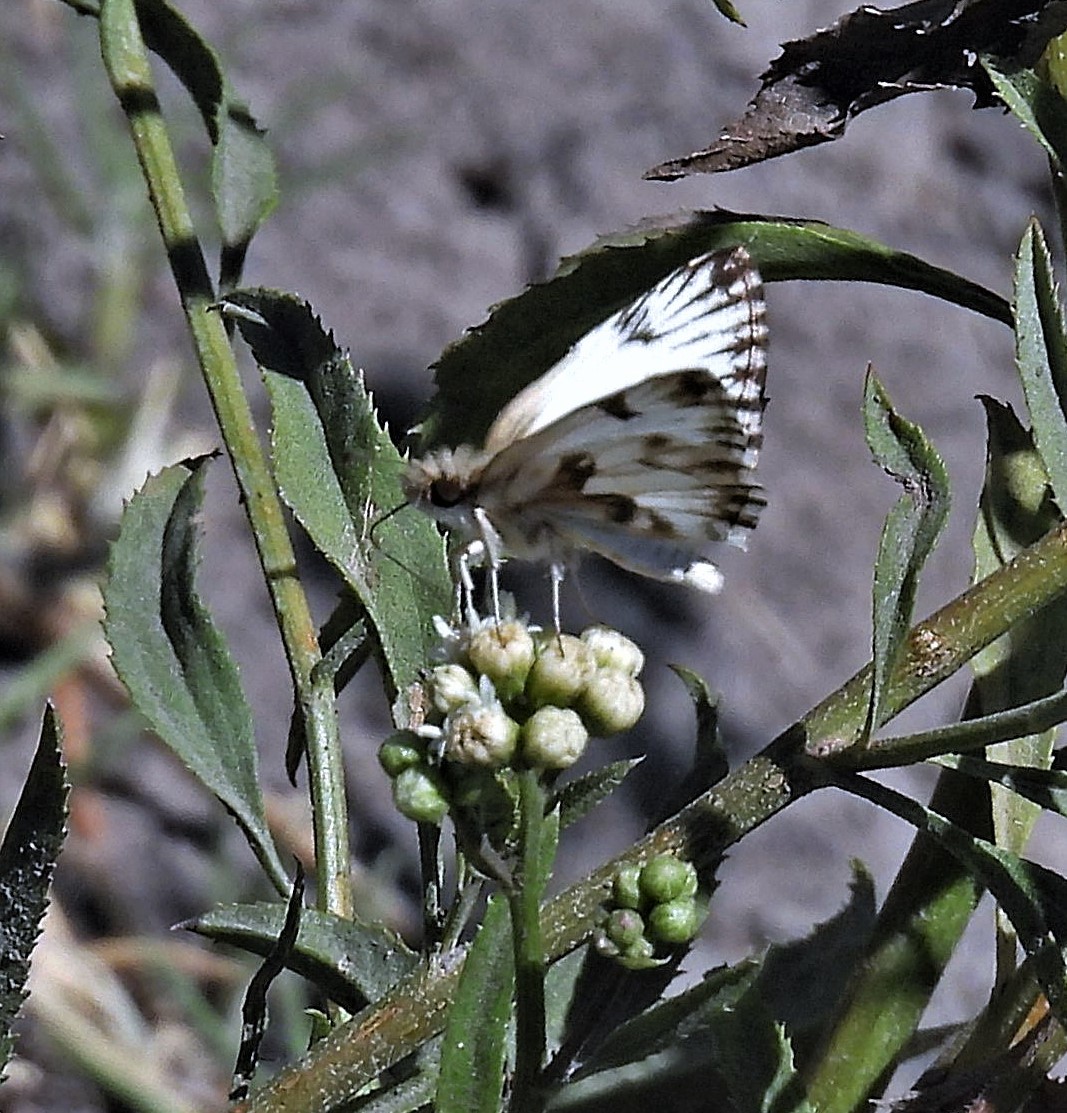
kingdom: Animalia
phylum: Arthropoda
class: Insecta
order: Lepidoptera
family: Hesperiidae
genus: Heliopetes
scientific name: Heliopetes omrina
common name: Stained white-skipper
